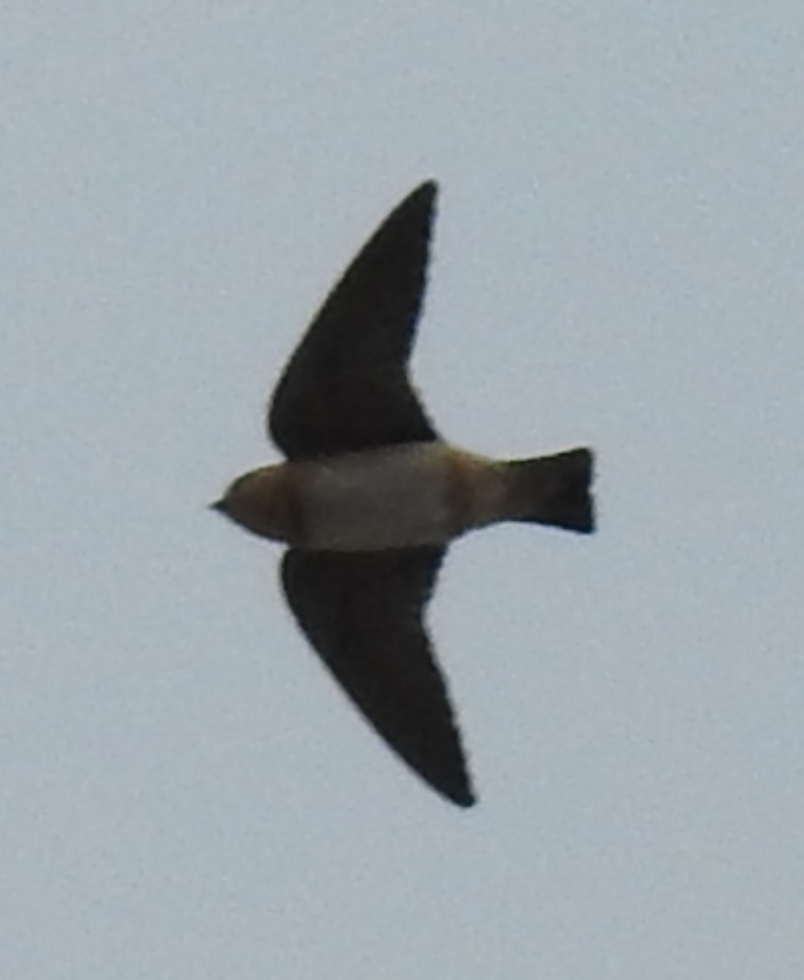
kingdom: Animalia
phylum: Chordata
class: Aves
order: Passeriformes
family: Hirundinidae
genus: Petrochelidon
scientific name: Petrochelidon fulva
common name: Cave swallow
